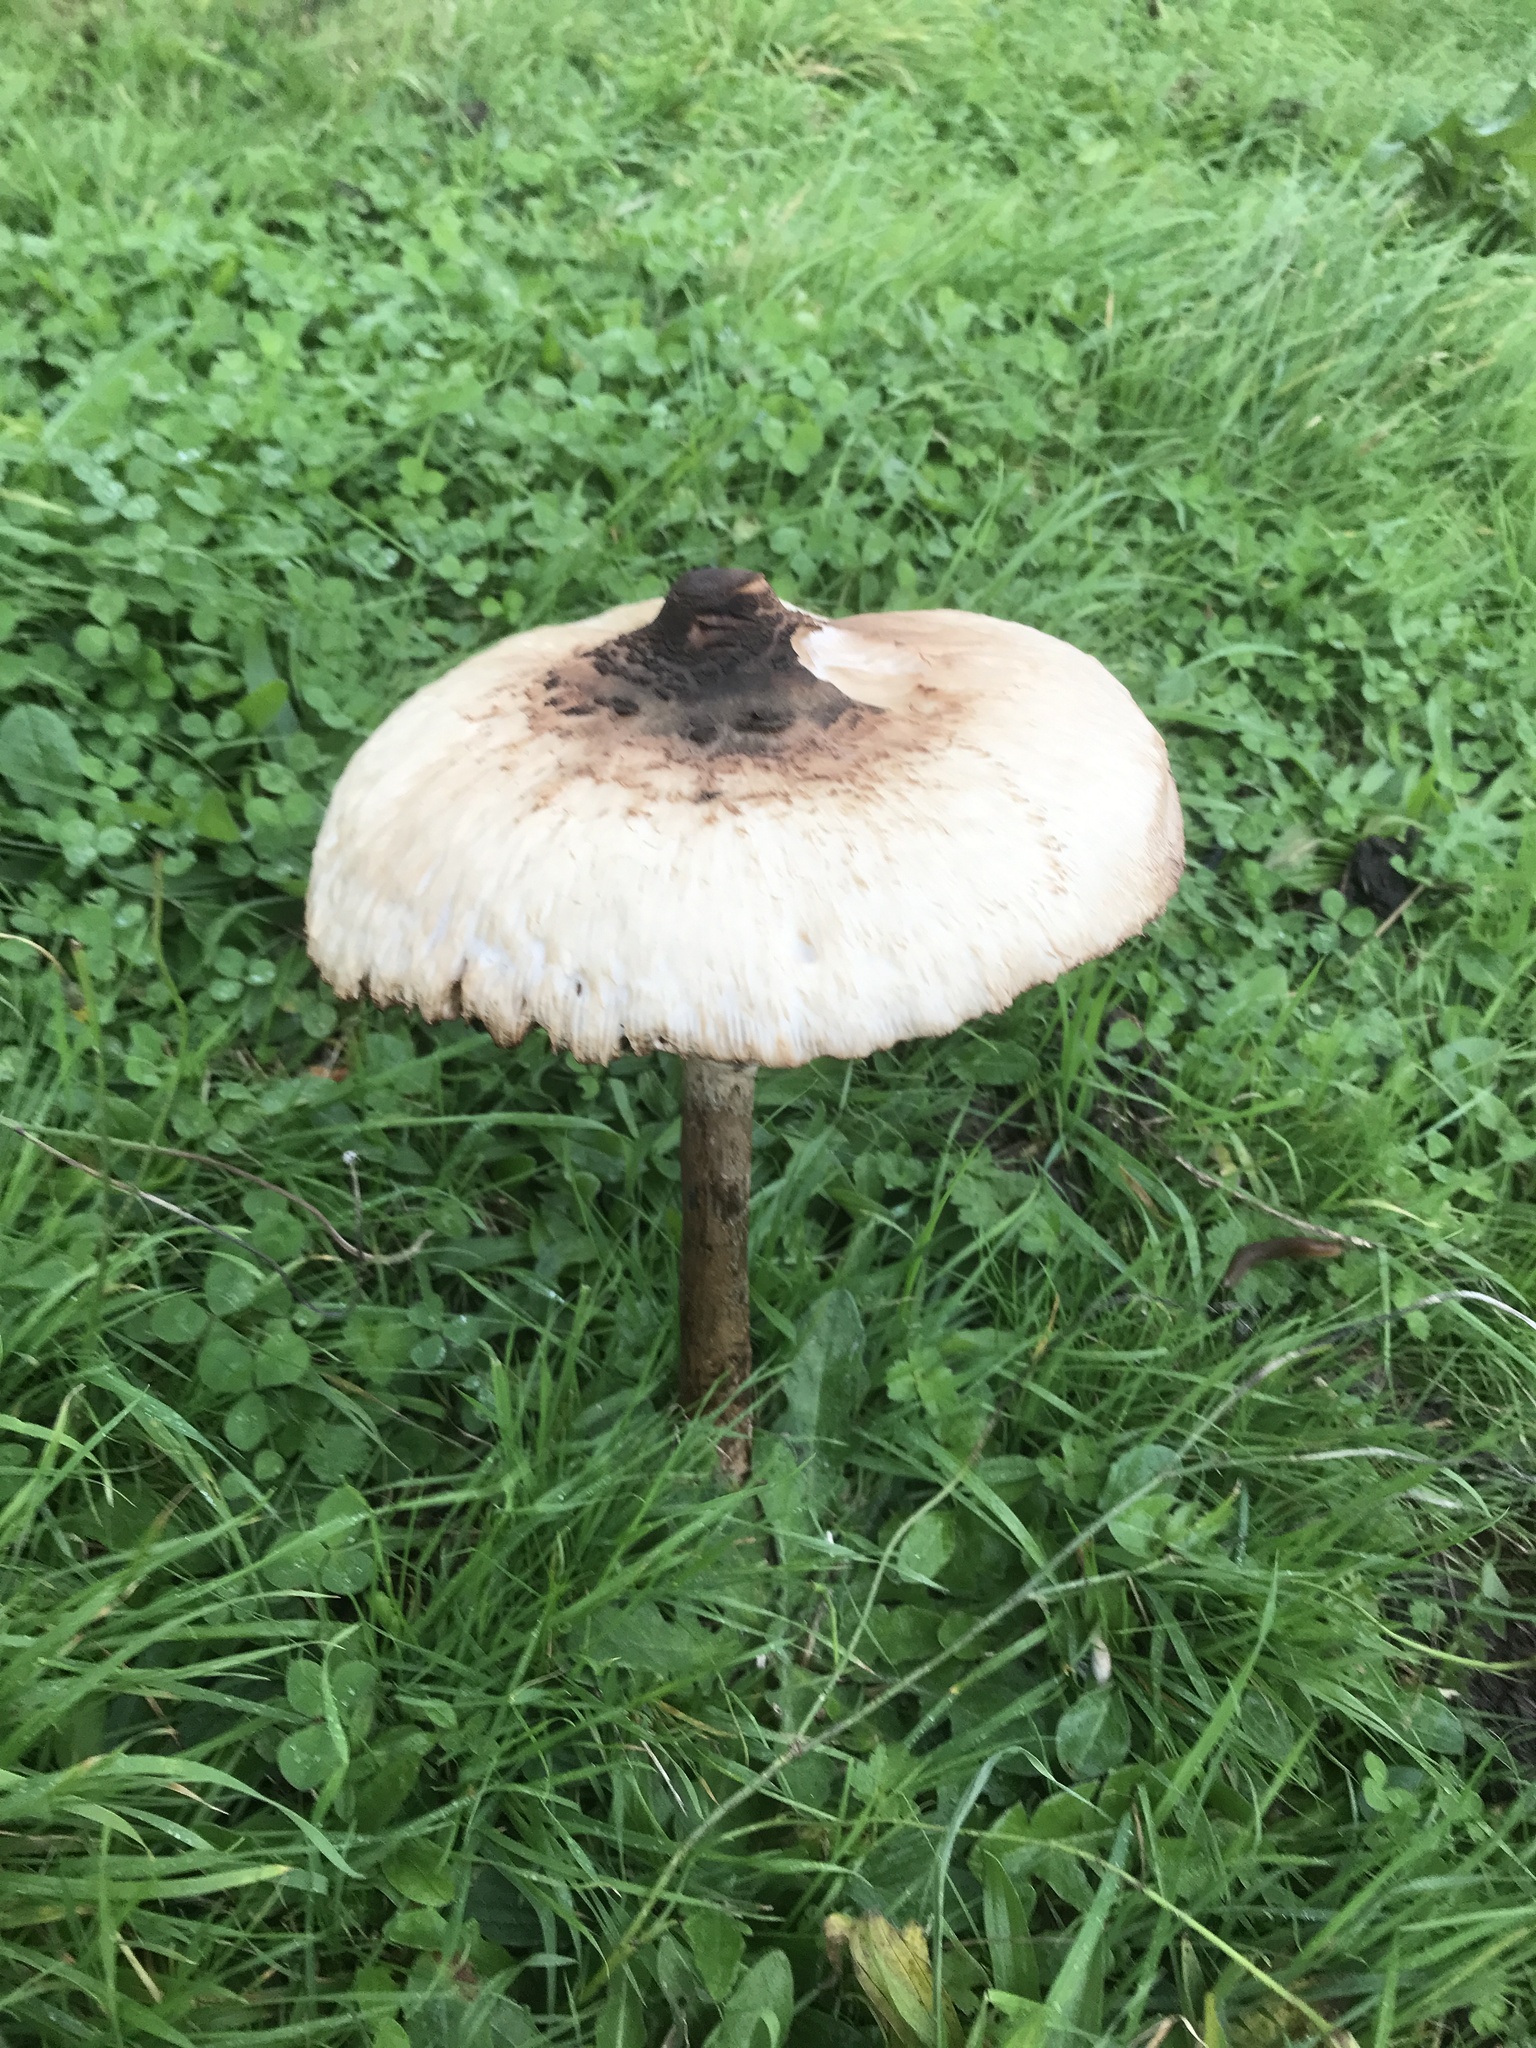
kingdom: Fungi
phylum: Basidiomycota
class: Agaricomycetes
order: Agaricales
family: Agaricaceae
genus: Macrolepiota
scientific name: Macrolepiota procera
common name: Parasol
